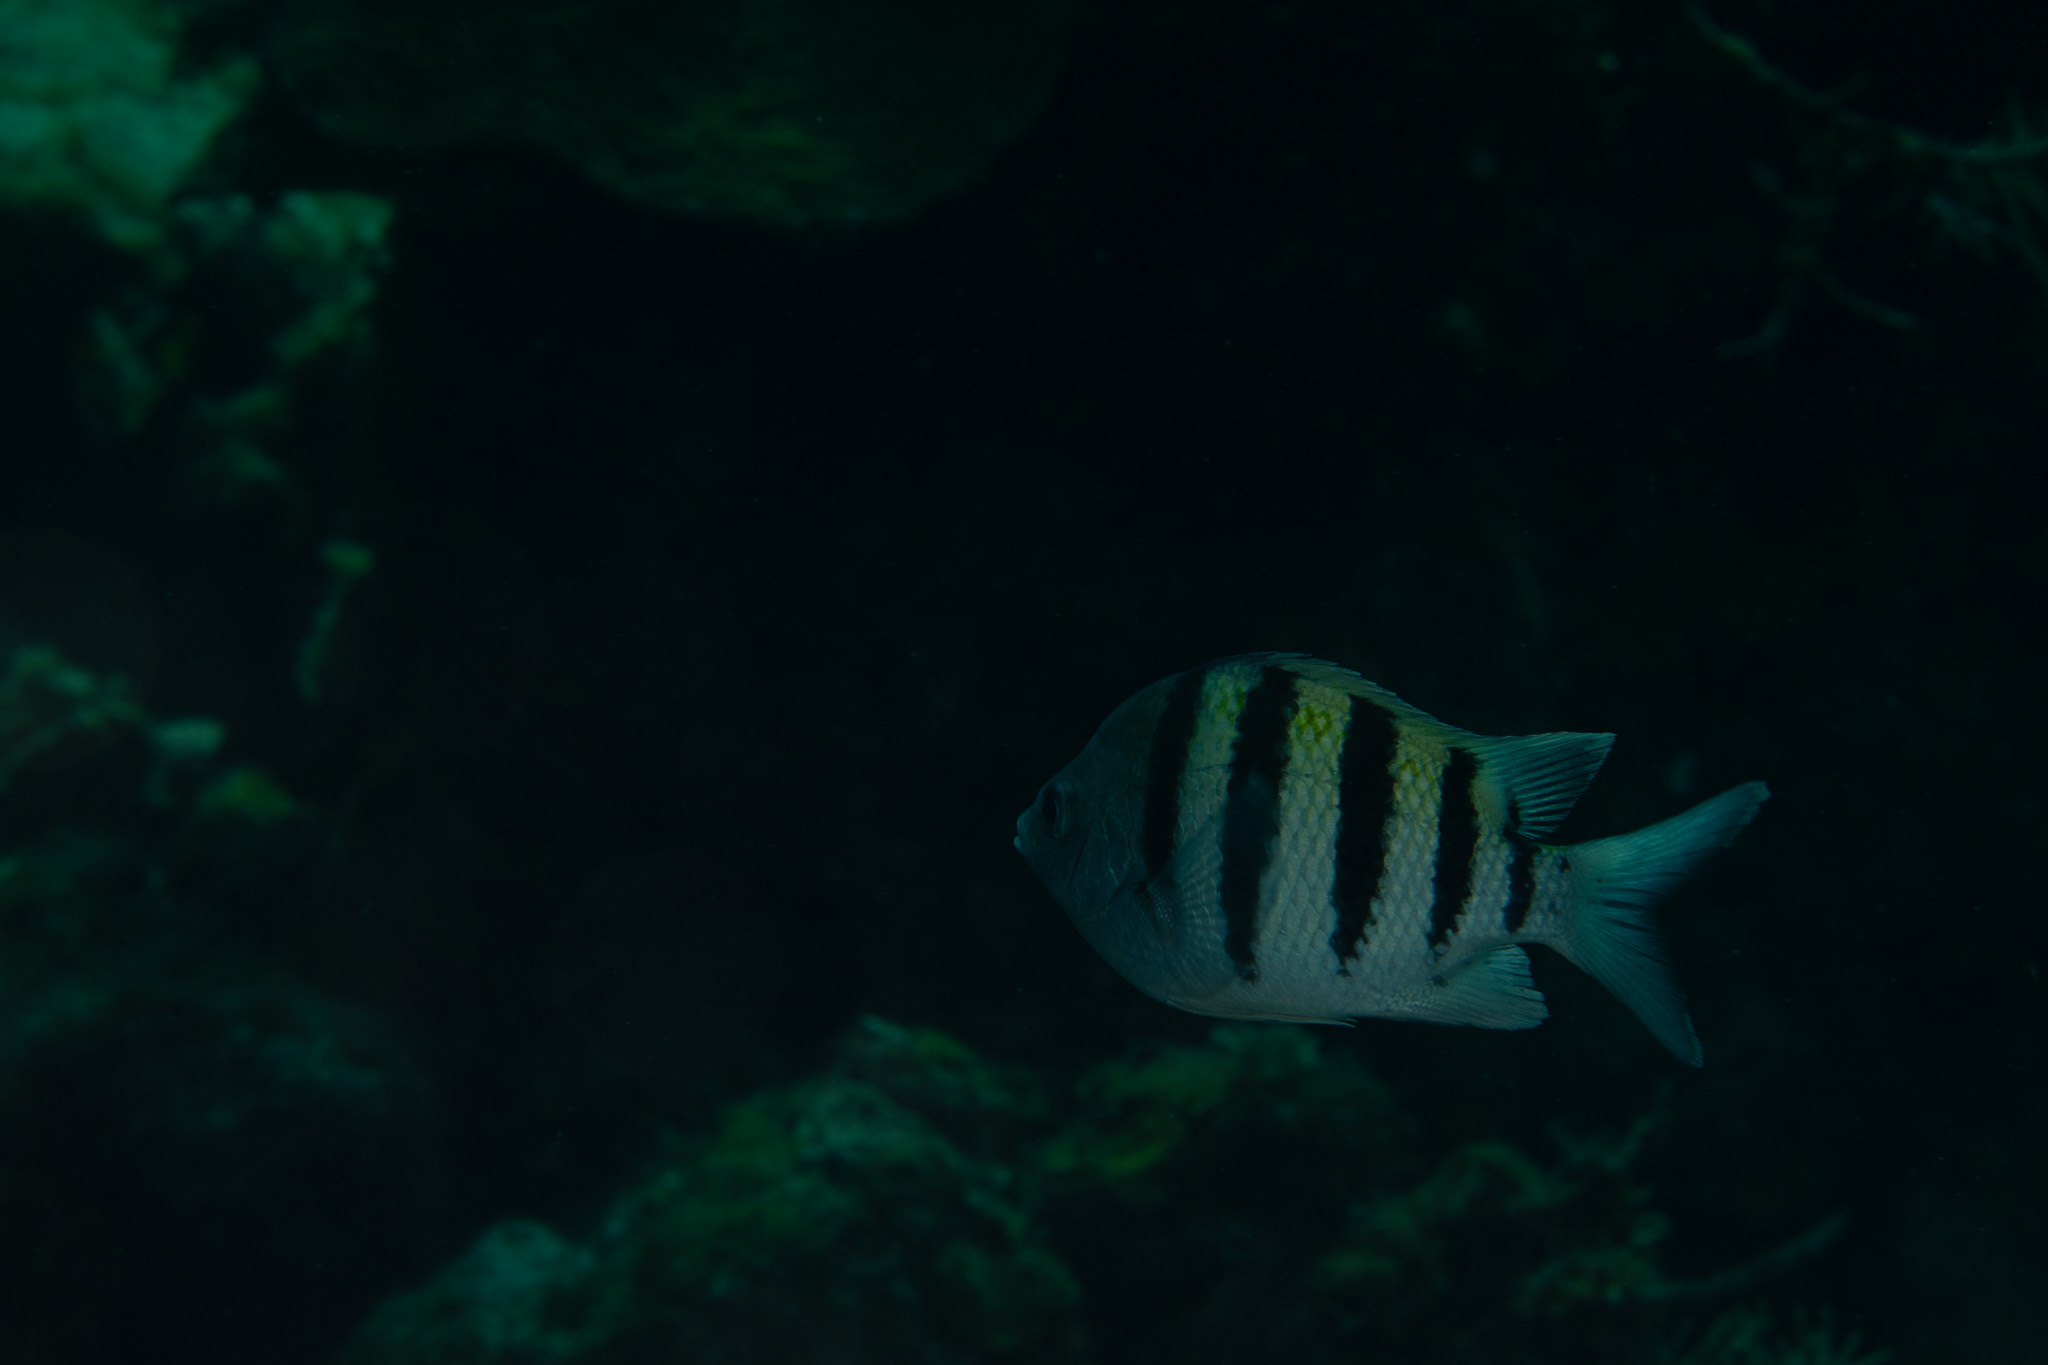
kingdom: Animalia
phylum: Chordata
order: Perciformes
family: Pomacentridae
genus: Abudefduf
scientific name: Abudefduf saxatilis
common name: Sergeant major
